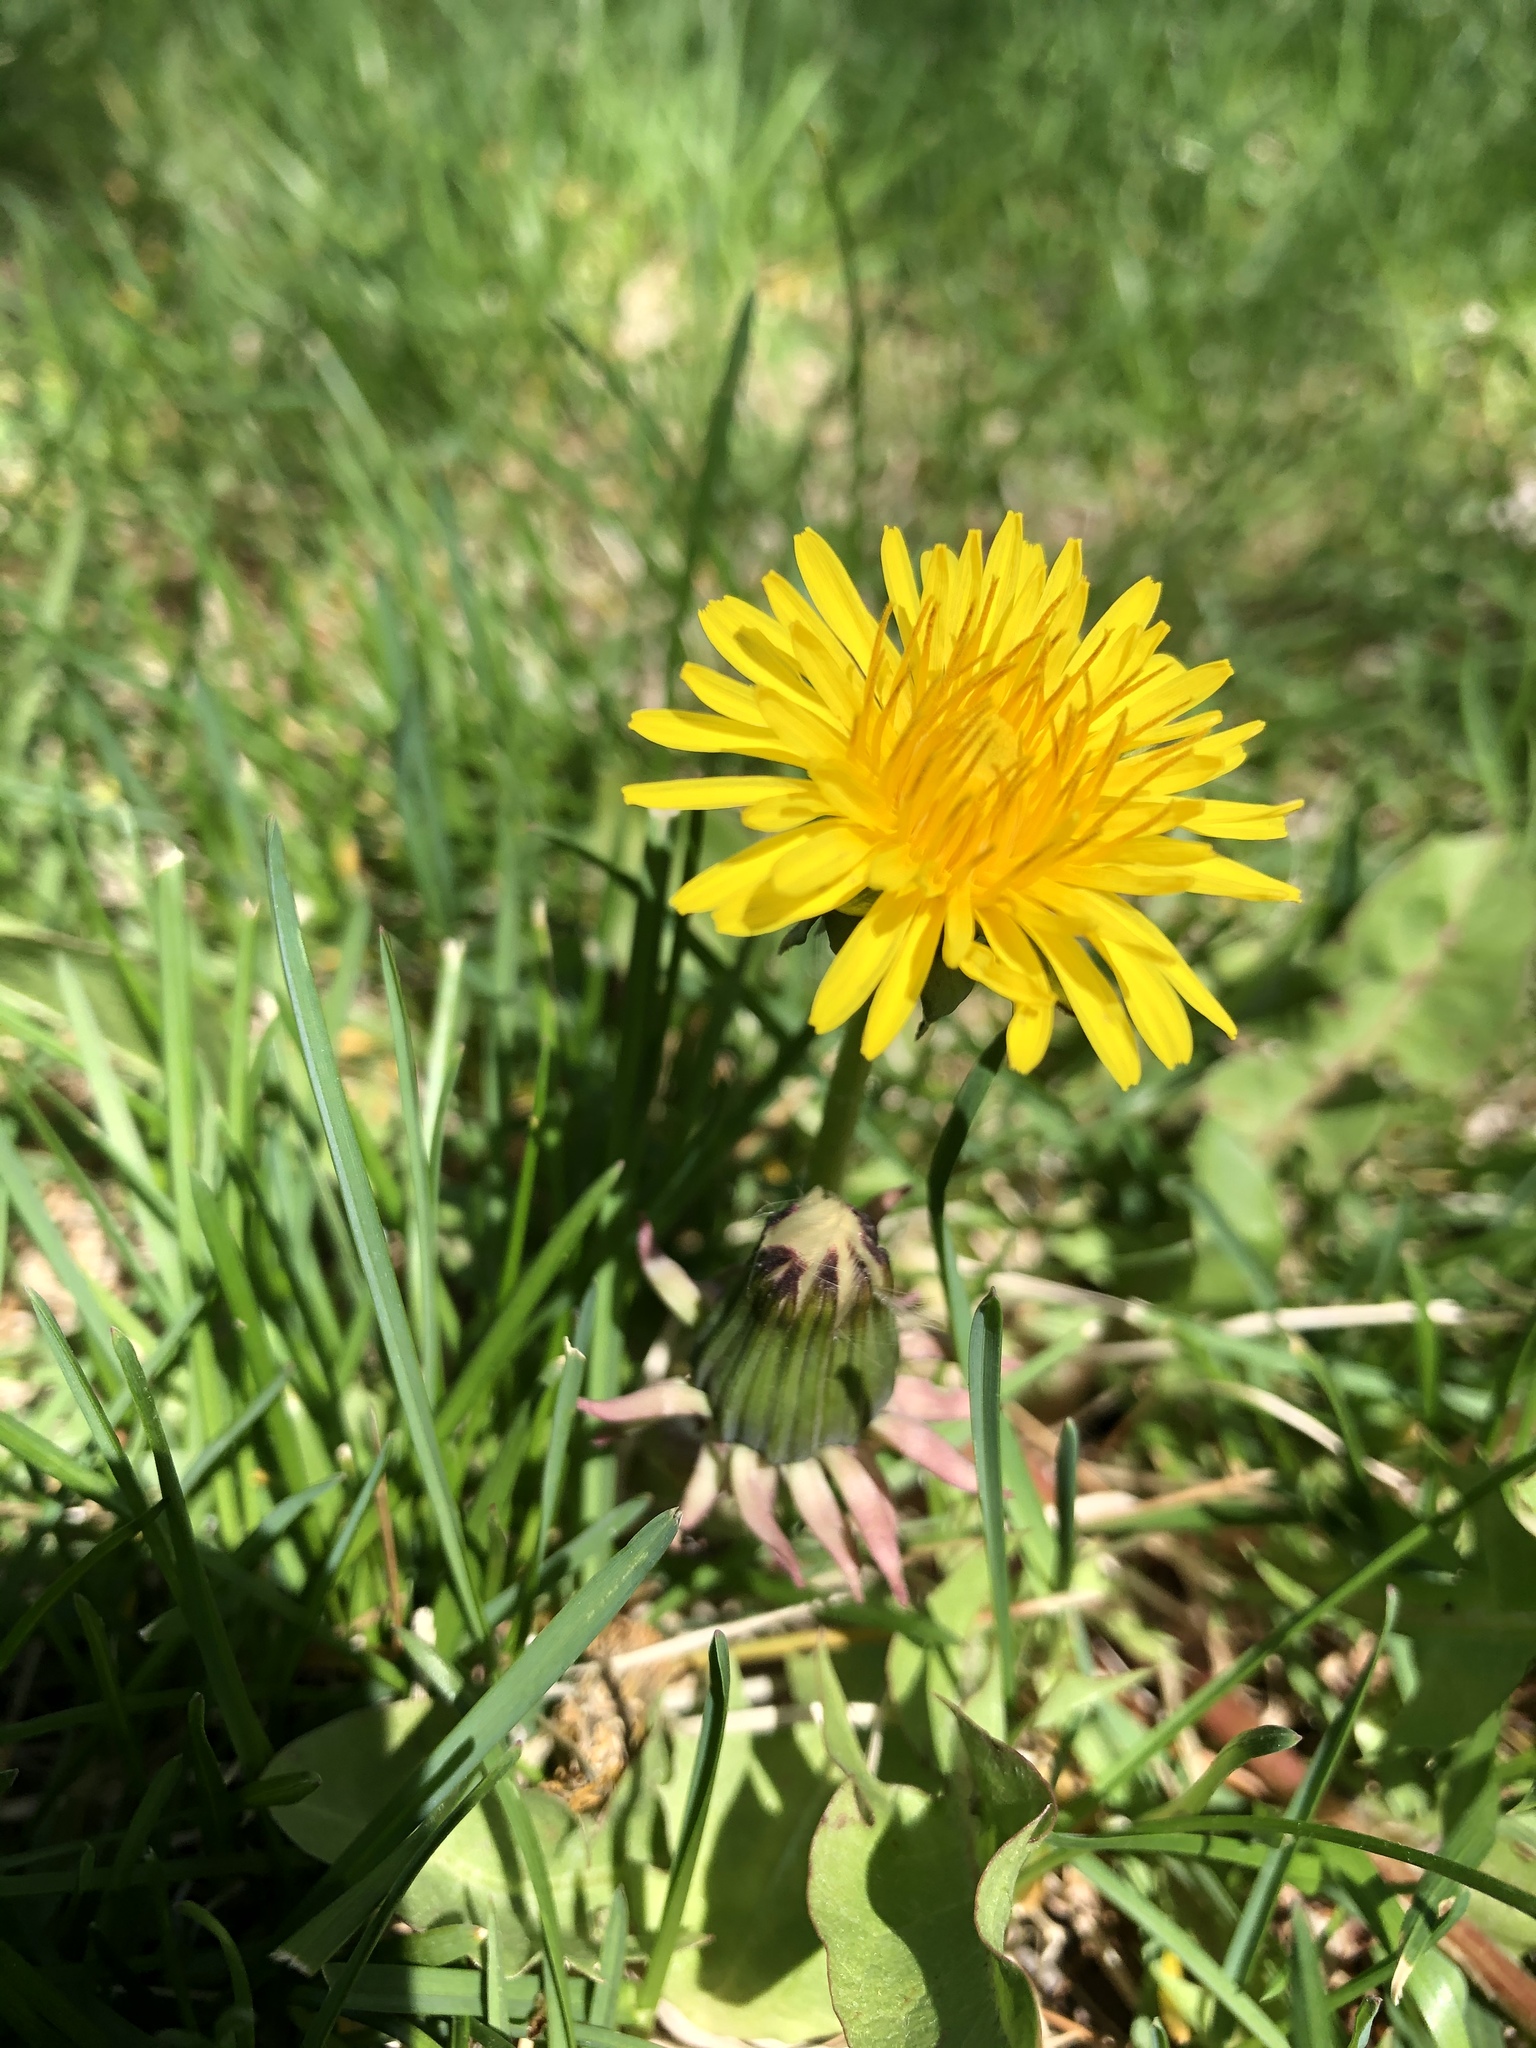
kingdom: Plantae
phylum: Tracheophyta
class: Magnoliopsida
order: Asterales
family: Asteraceae
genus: Taraxacum
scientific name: Taraxacum officinale
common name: Common dandelion
